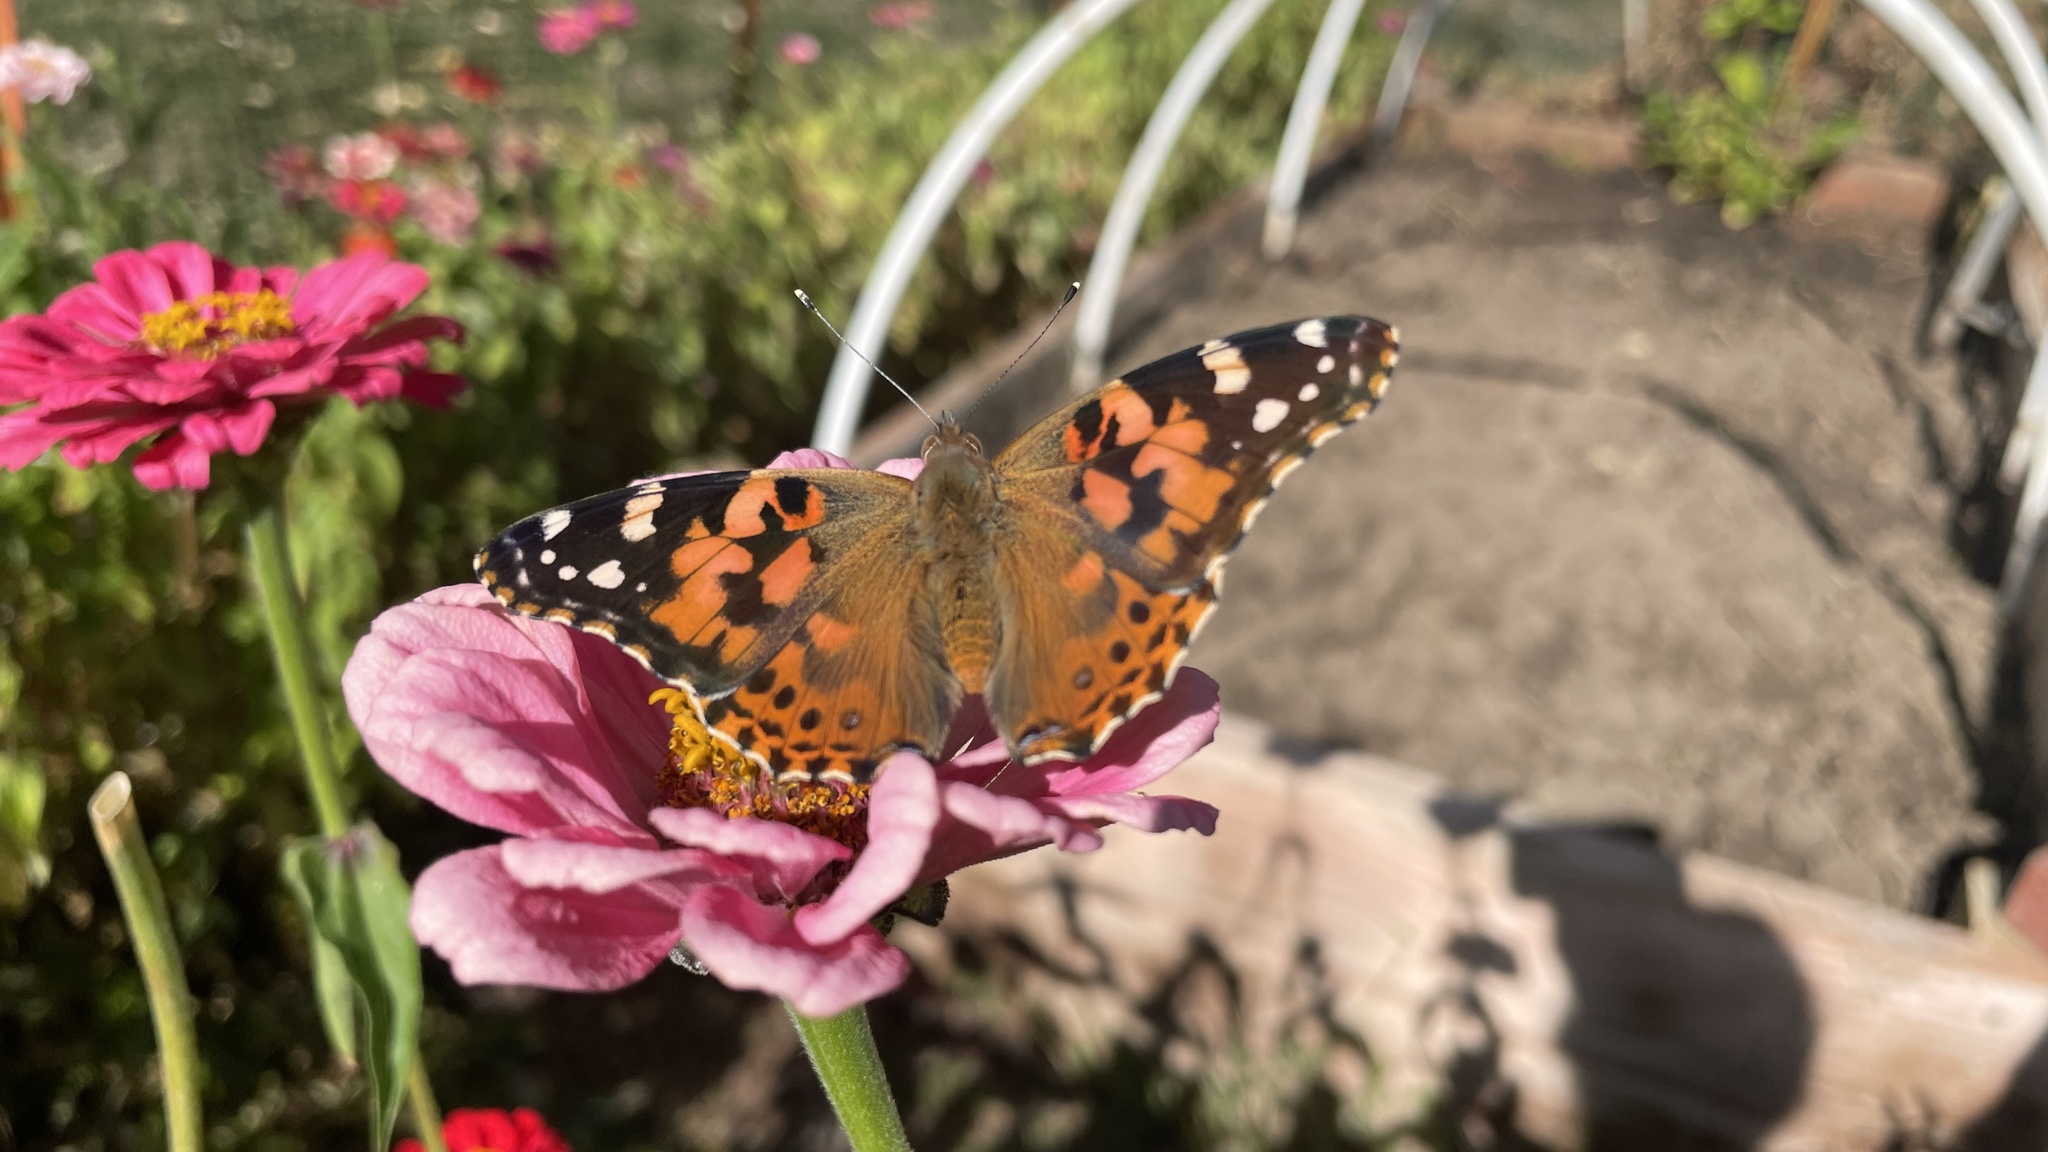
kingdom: Animalia
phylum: Arthropoda
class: Insecta
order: Lepidoptera
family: Nymphalidae
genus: Vanessa
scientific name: Vanessa cardui
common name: Painted lady
